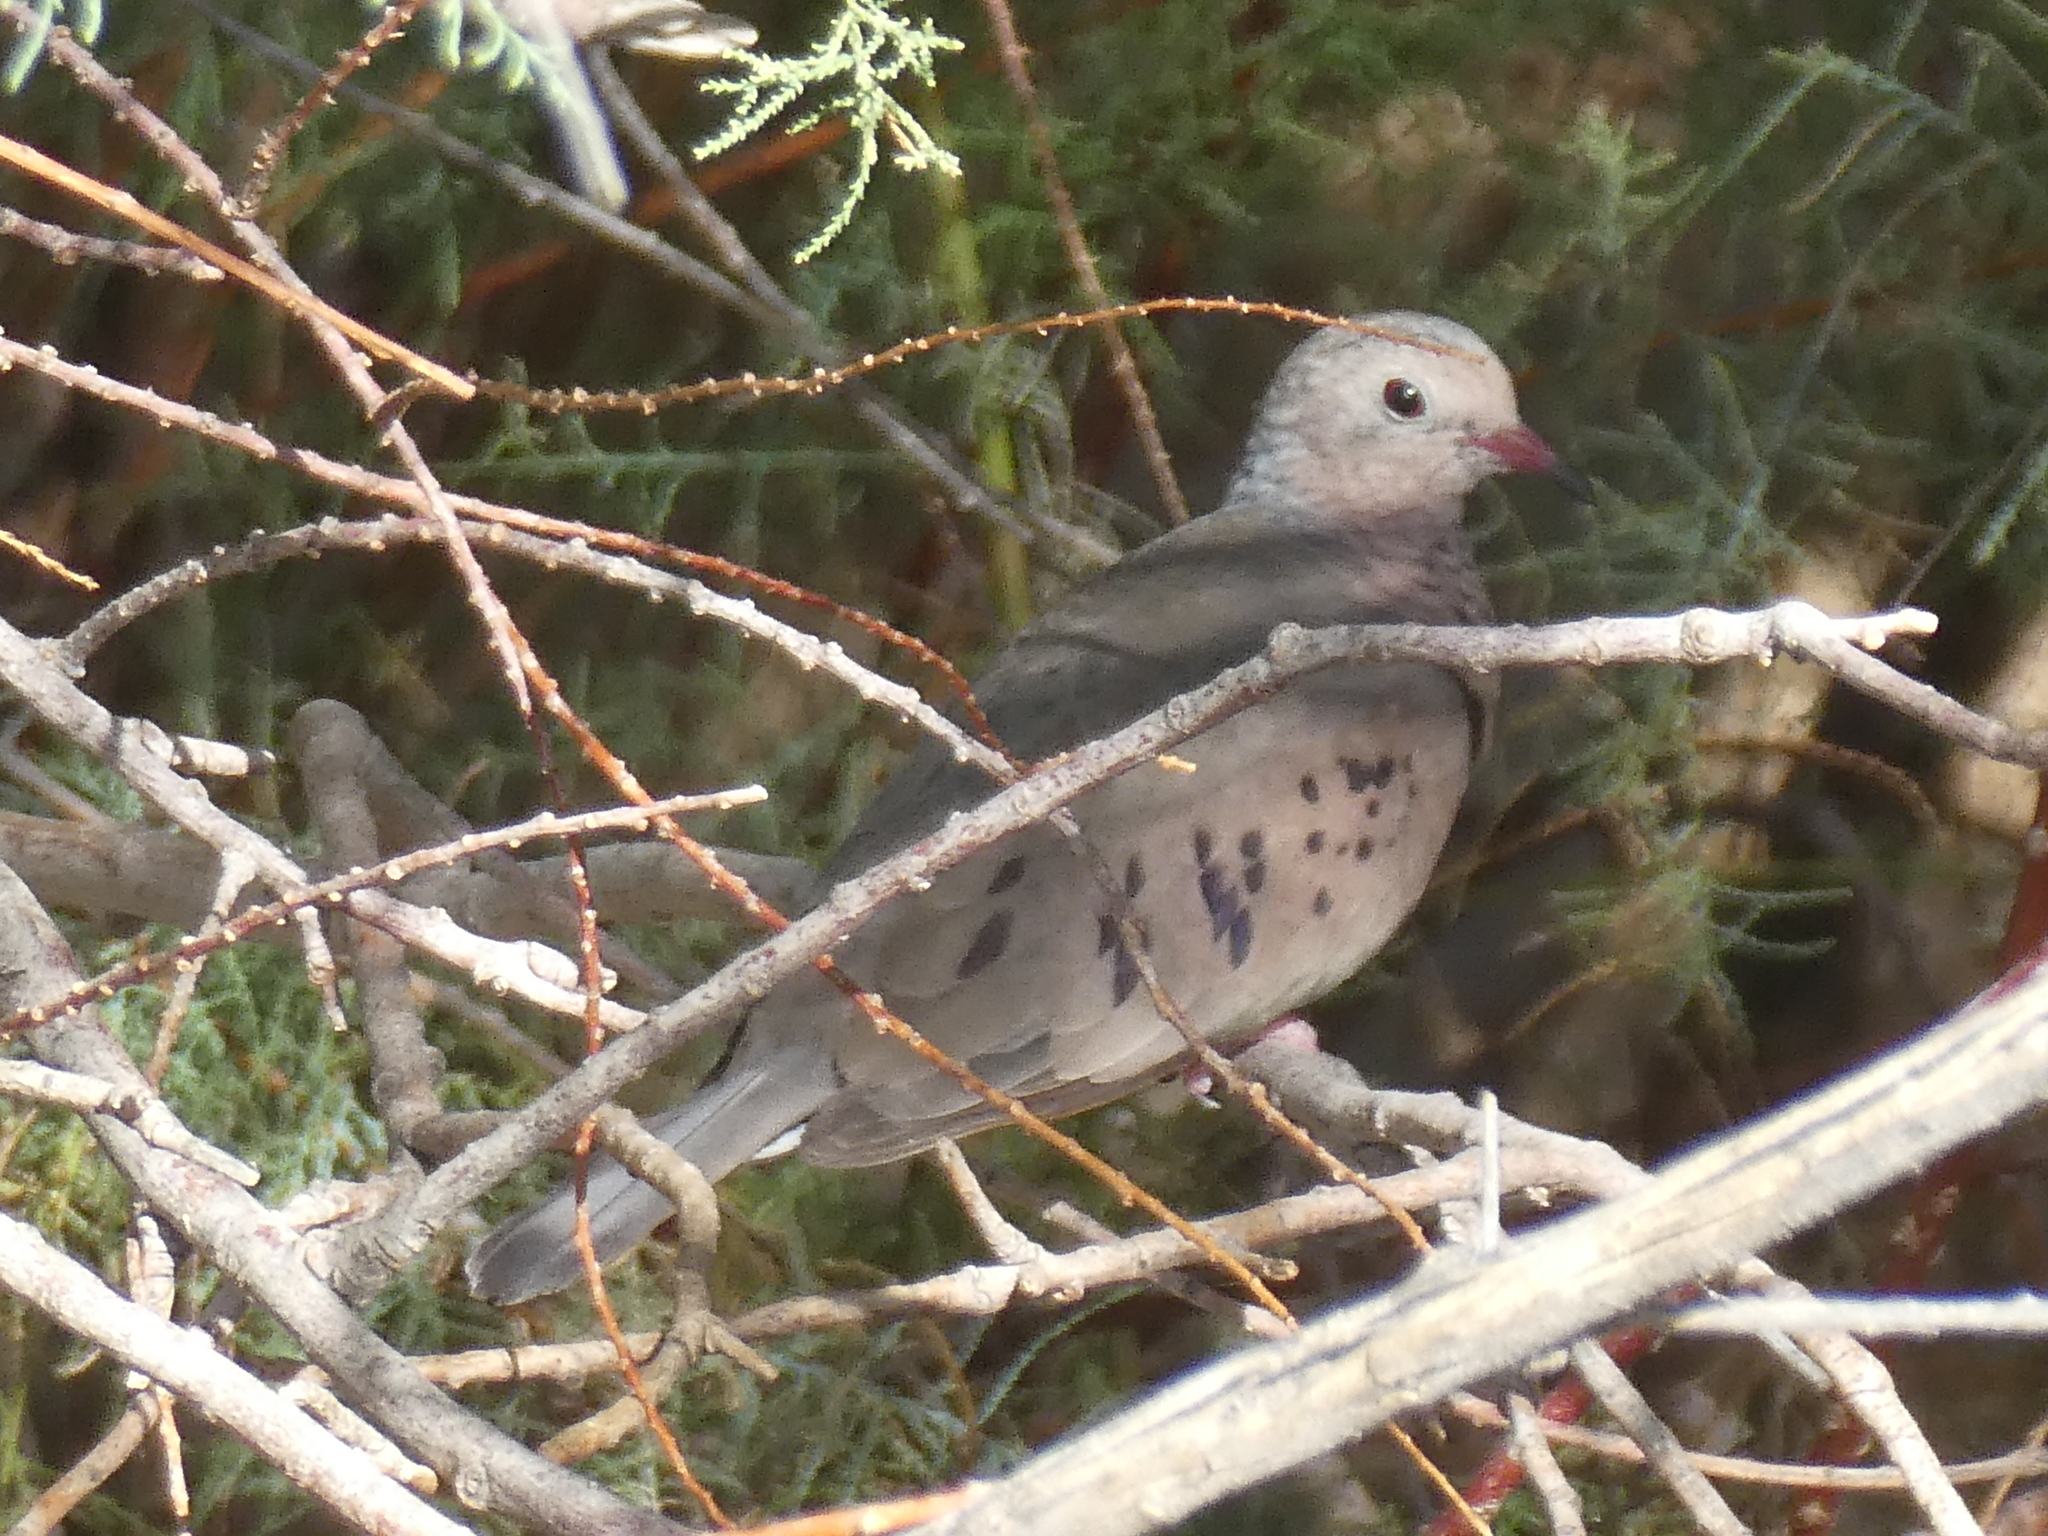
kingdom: Animalia
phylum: Chordata
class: Aves
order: Columbiformes
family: Columbidae
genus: Columbina
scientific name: Columbina passerina
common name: Common ground-dove
